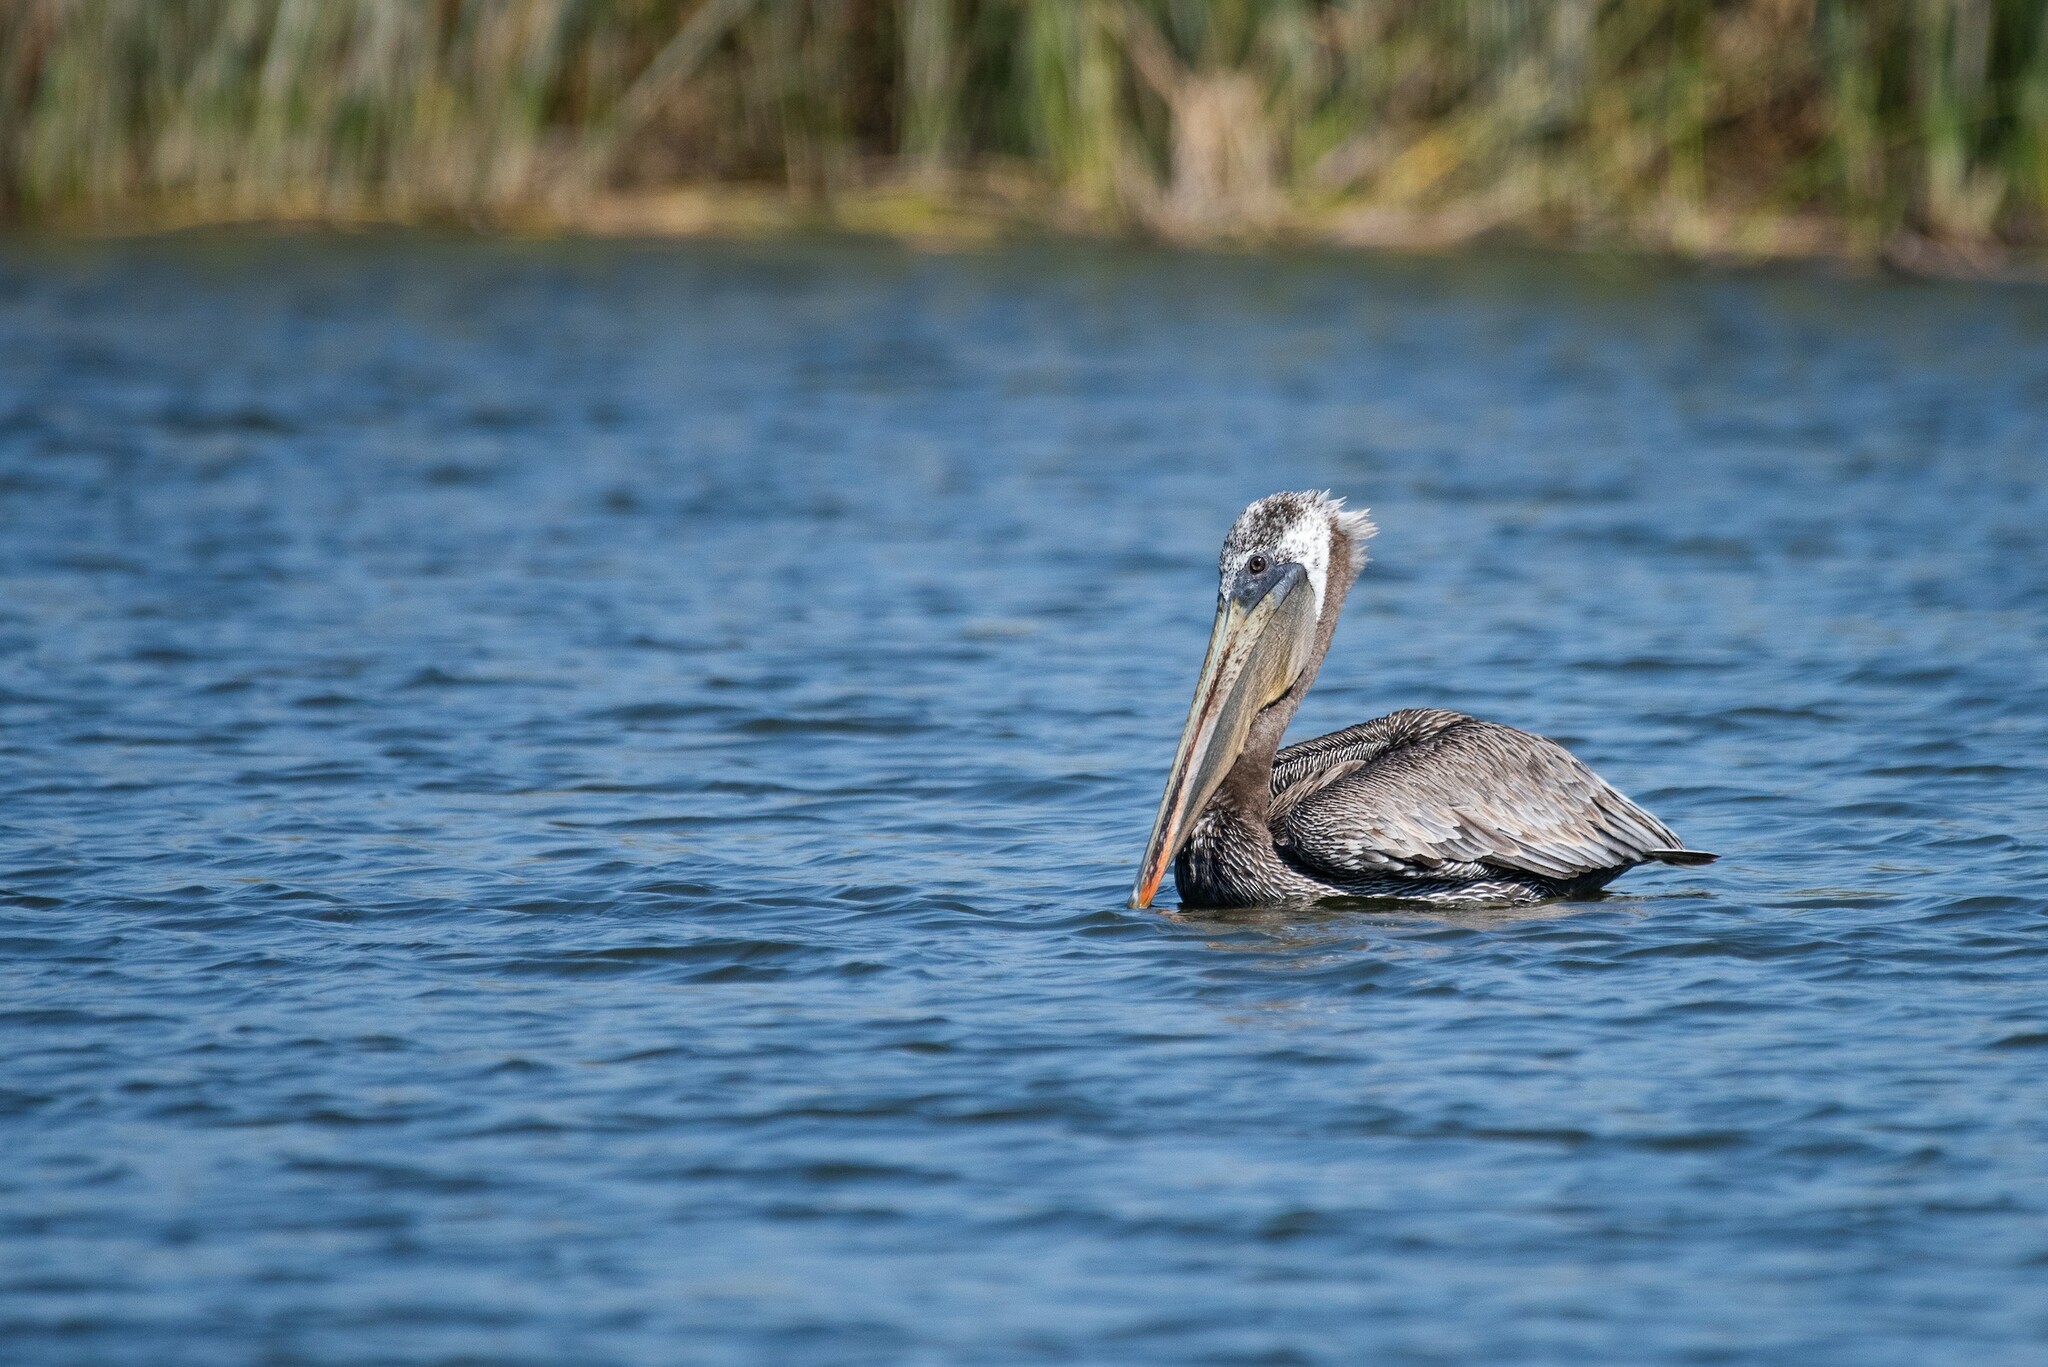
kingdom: Animalia
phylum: Chordata
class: Aves
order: Pelecaniformes
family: Pelecanidae
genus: Pelecanus
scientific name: Pelecanus occidentalis
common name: Brown pelican
